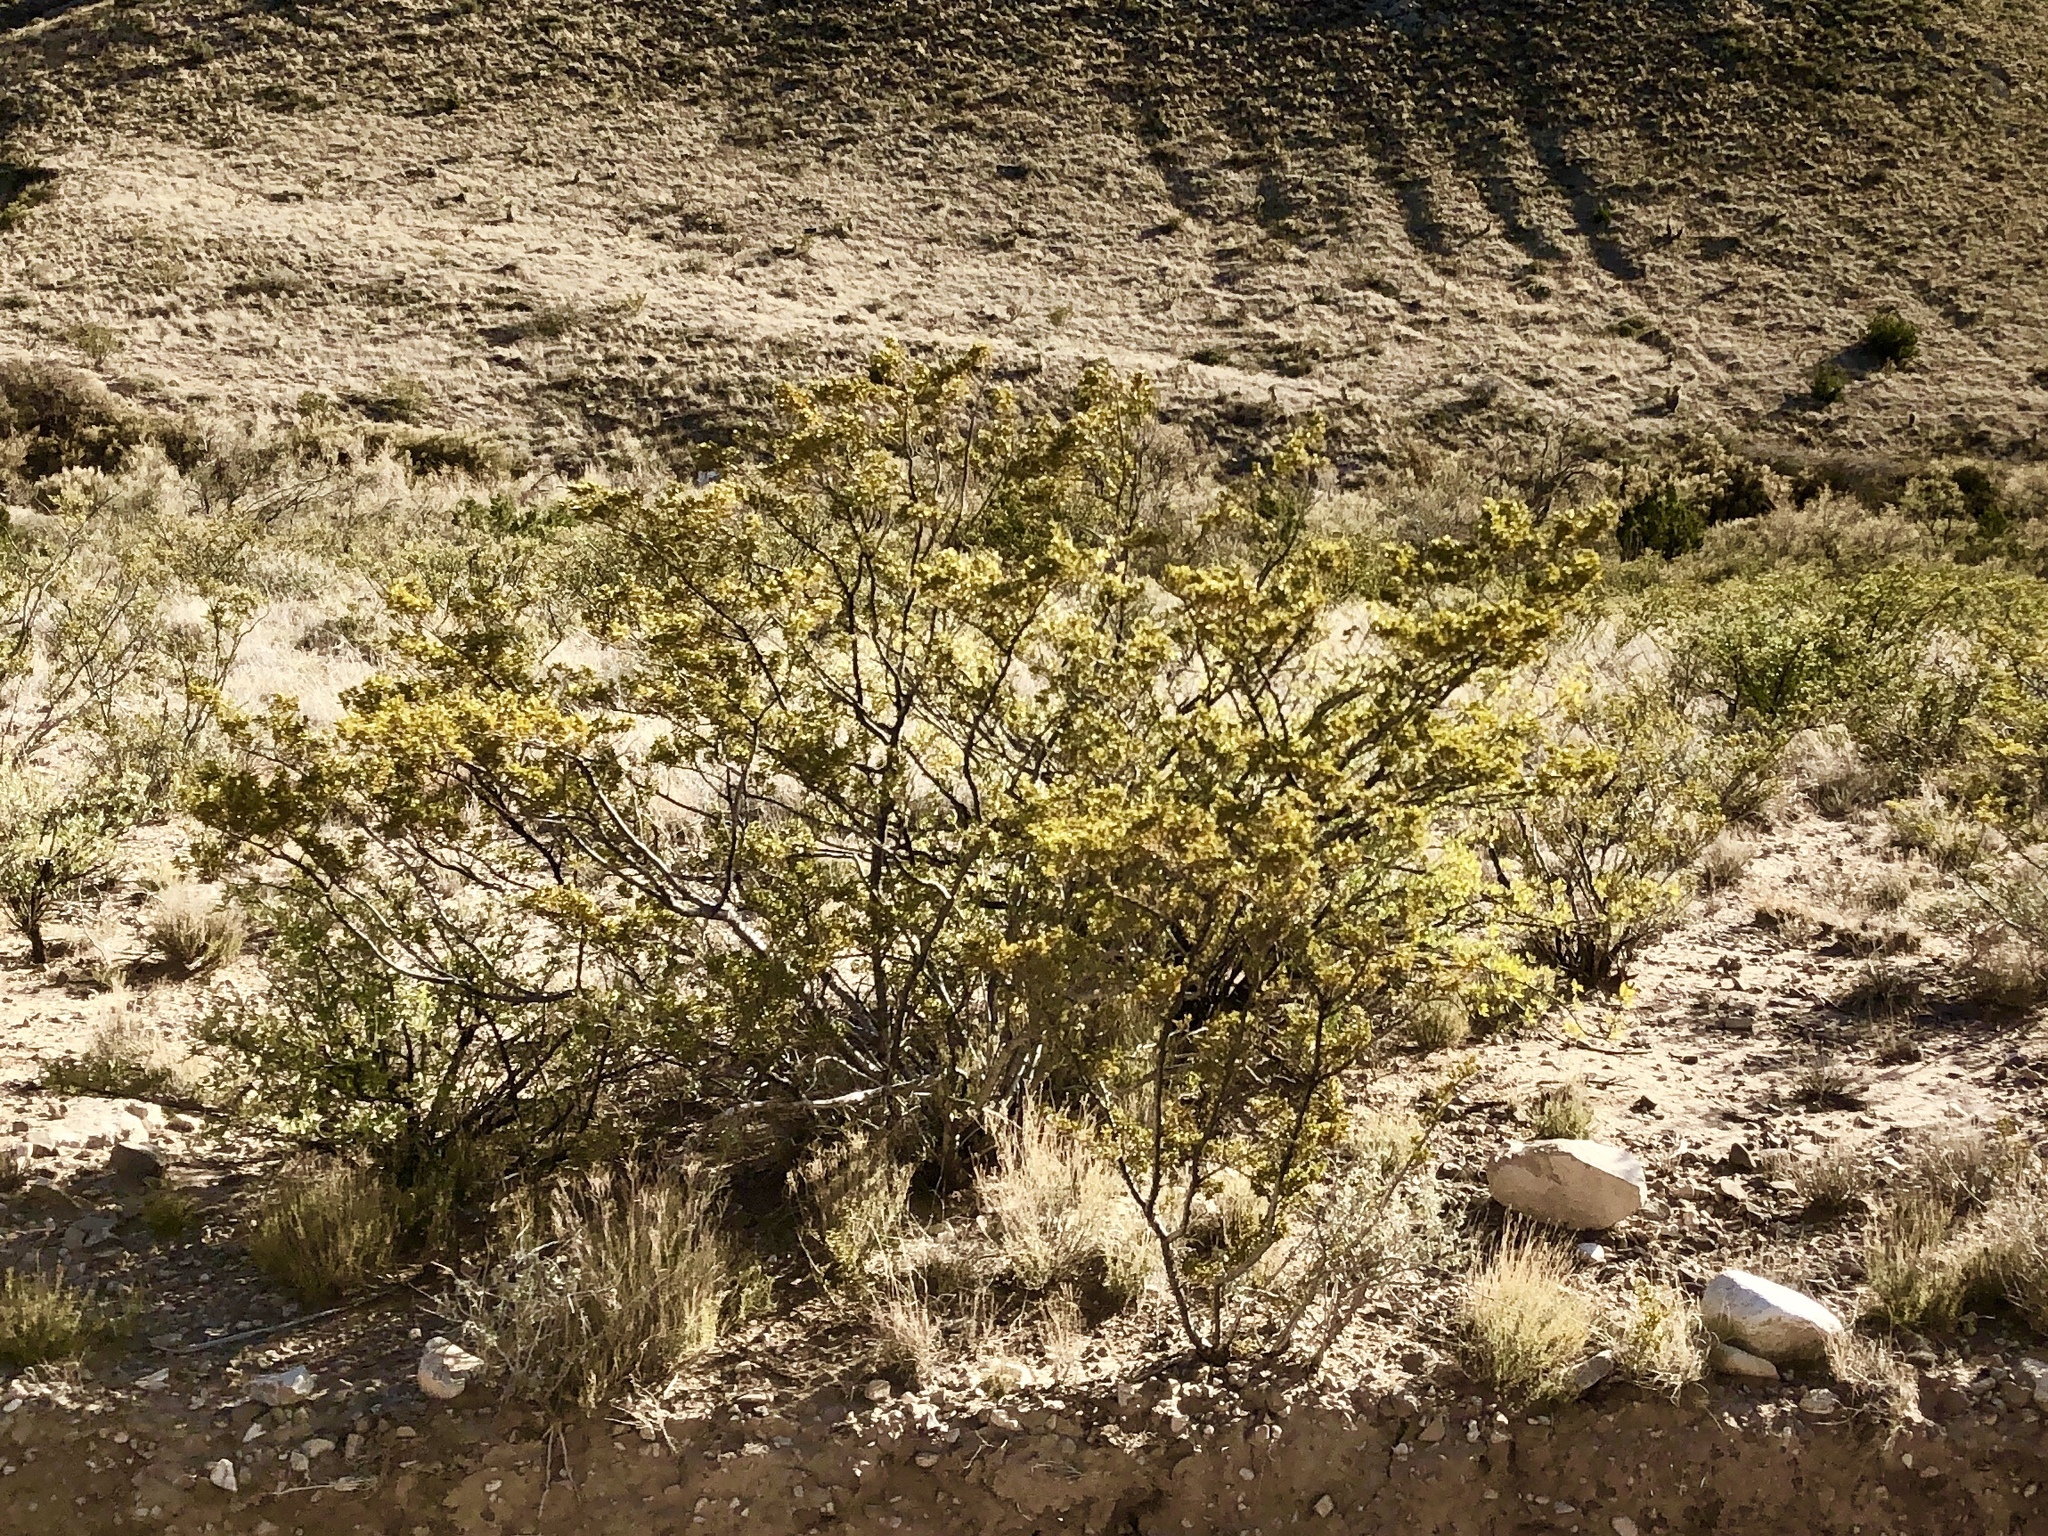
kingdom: Plantae
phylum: Tracheophyta
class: Magnoliopsida
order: Zygophyllales
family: Zygophyllaceae
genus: Larrea
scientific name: Larrea tridentata
